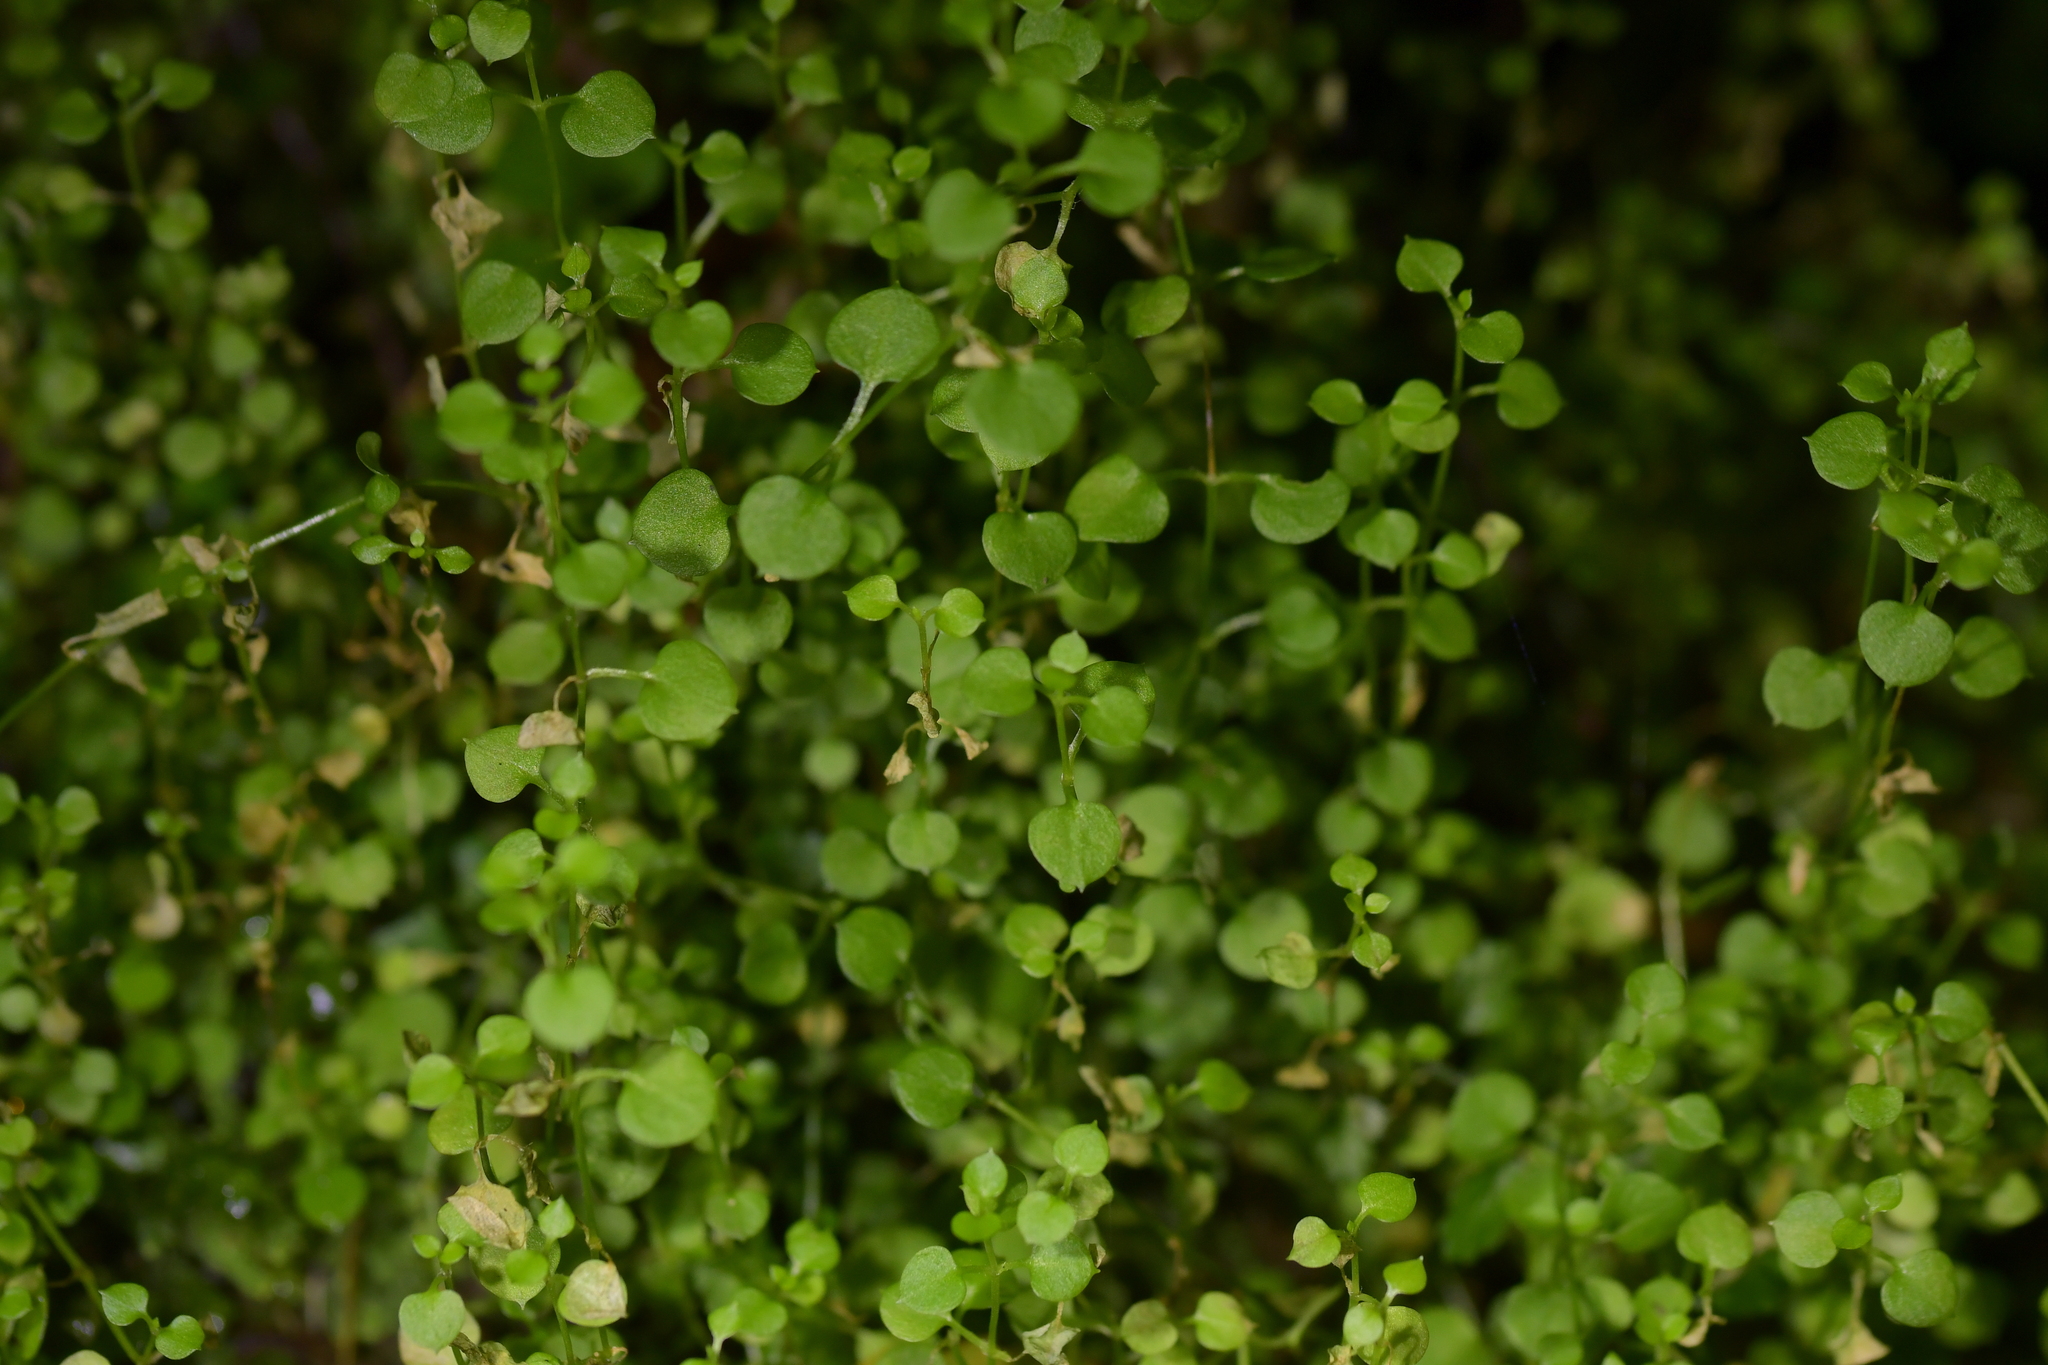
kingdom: Plantae
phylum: Tracheophyta
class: Magnoliopsida
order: Caryophyllales
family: Caryophyllaceae
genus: Stellaria
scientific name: Stellaria parviflora
